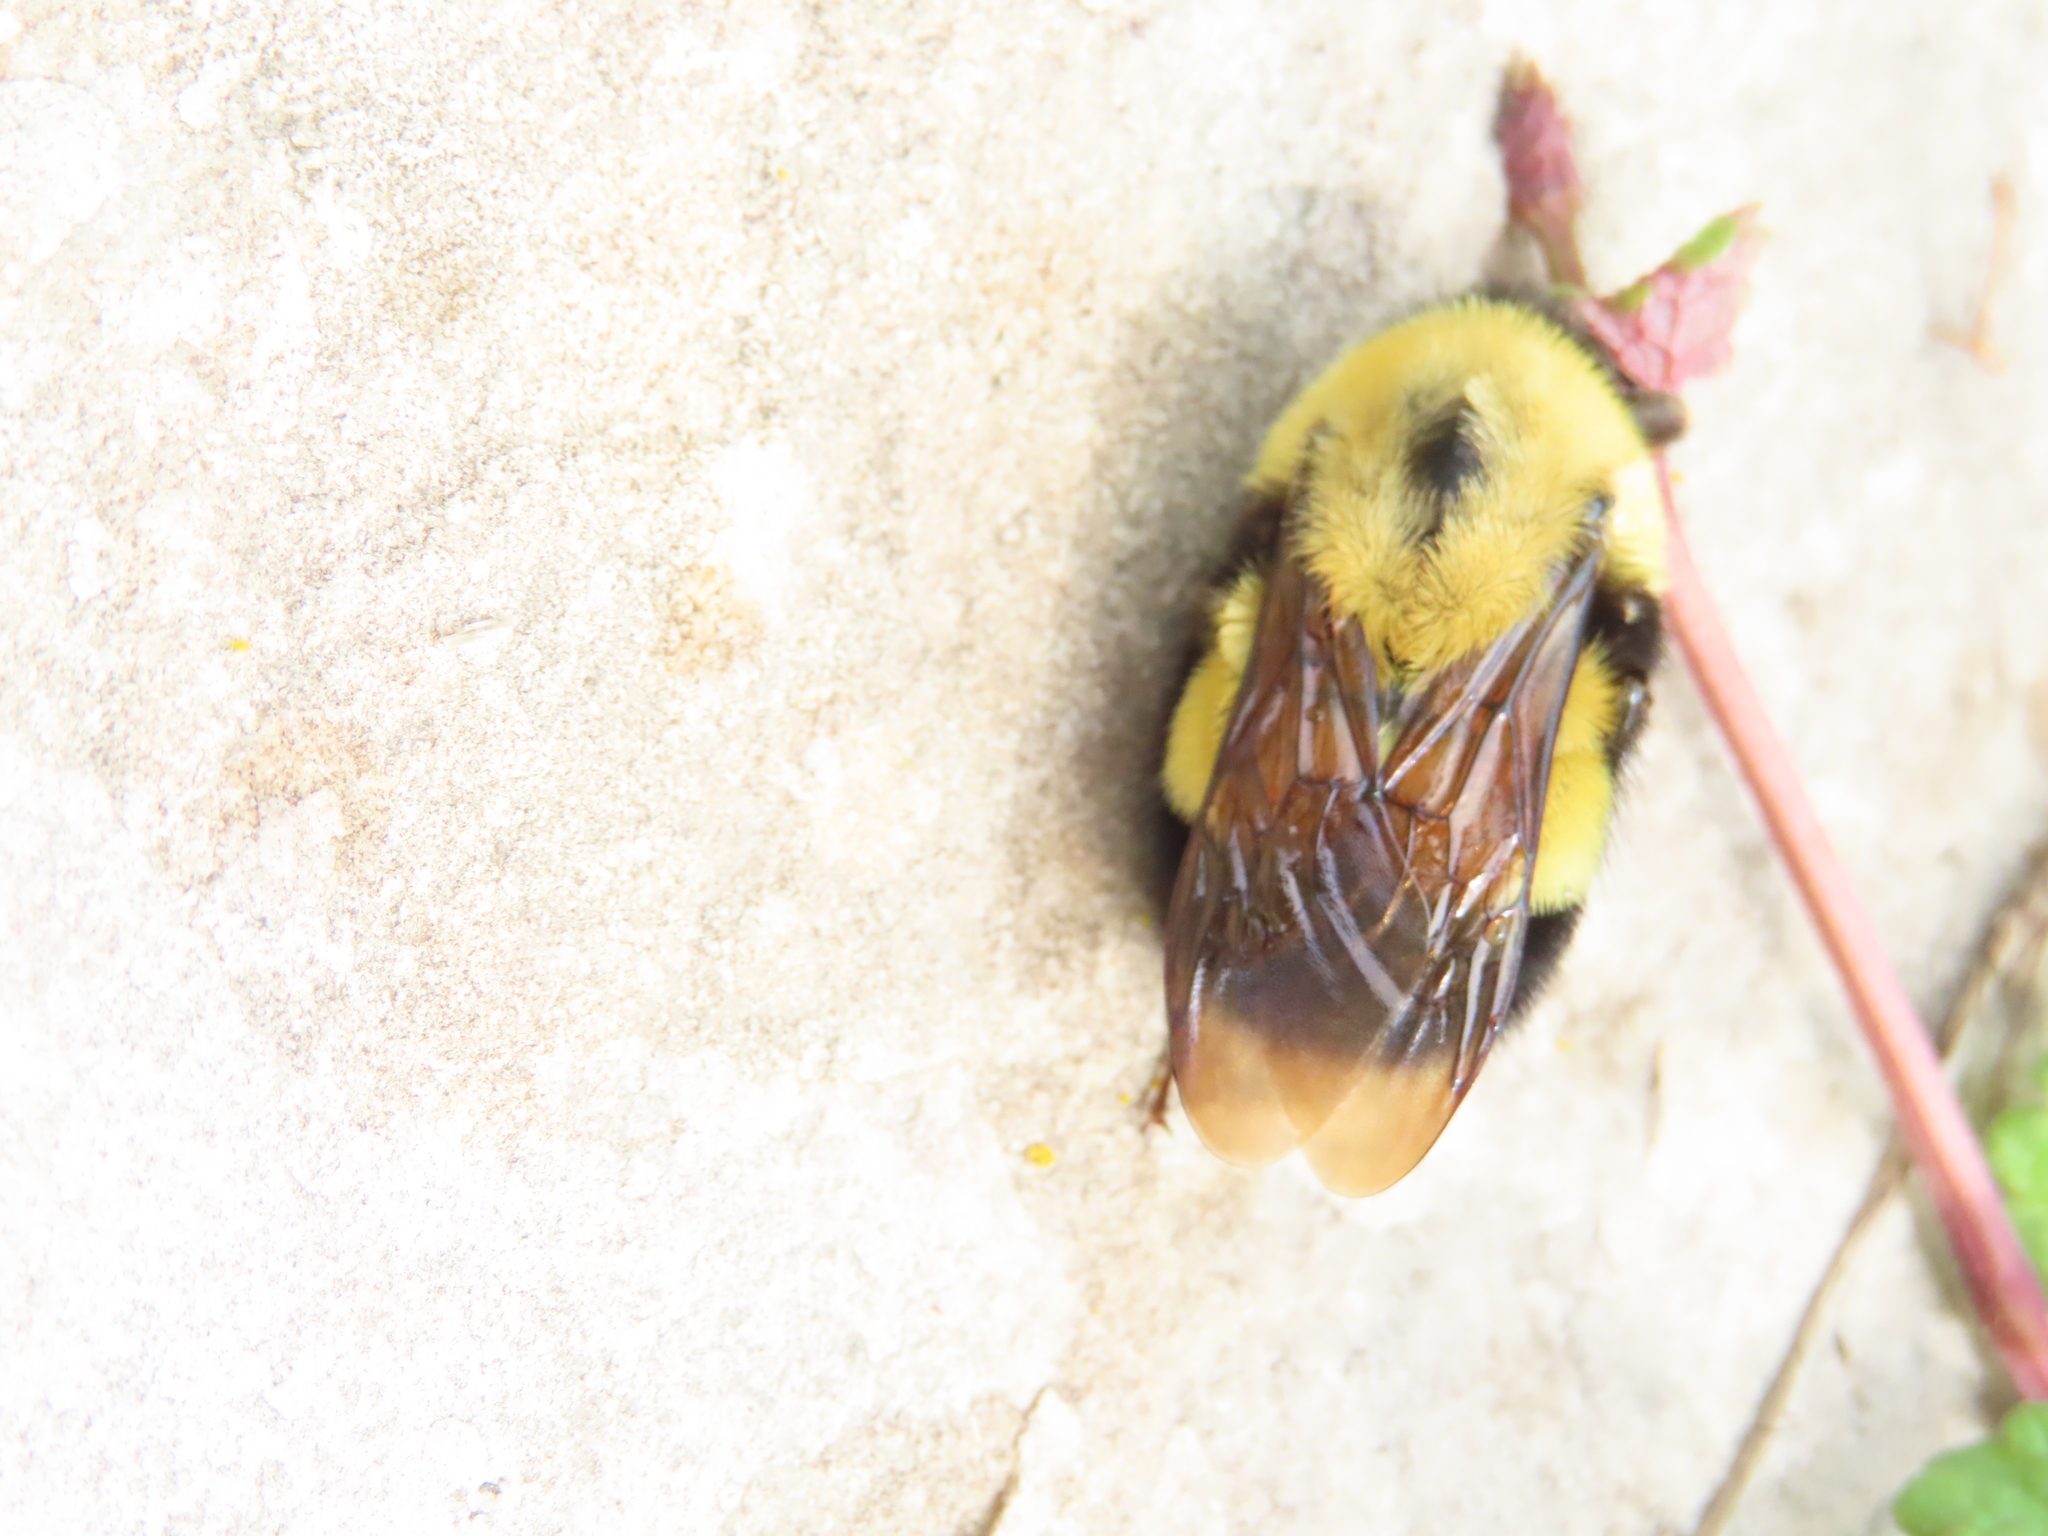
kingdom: Animalia
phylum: Arthropoda
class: Insecta
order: Hymenoptera
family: Apidae
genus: Bombus
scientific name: Bombus affinis
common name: Rusty patched bumble bee
